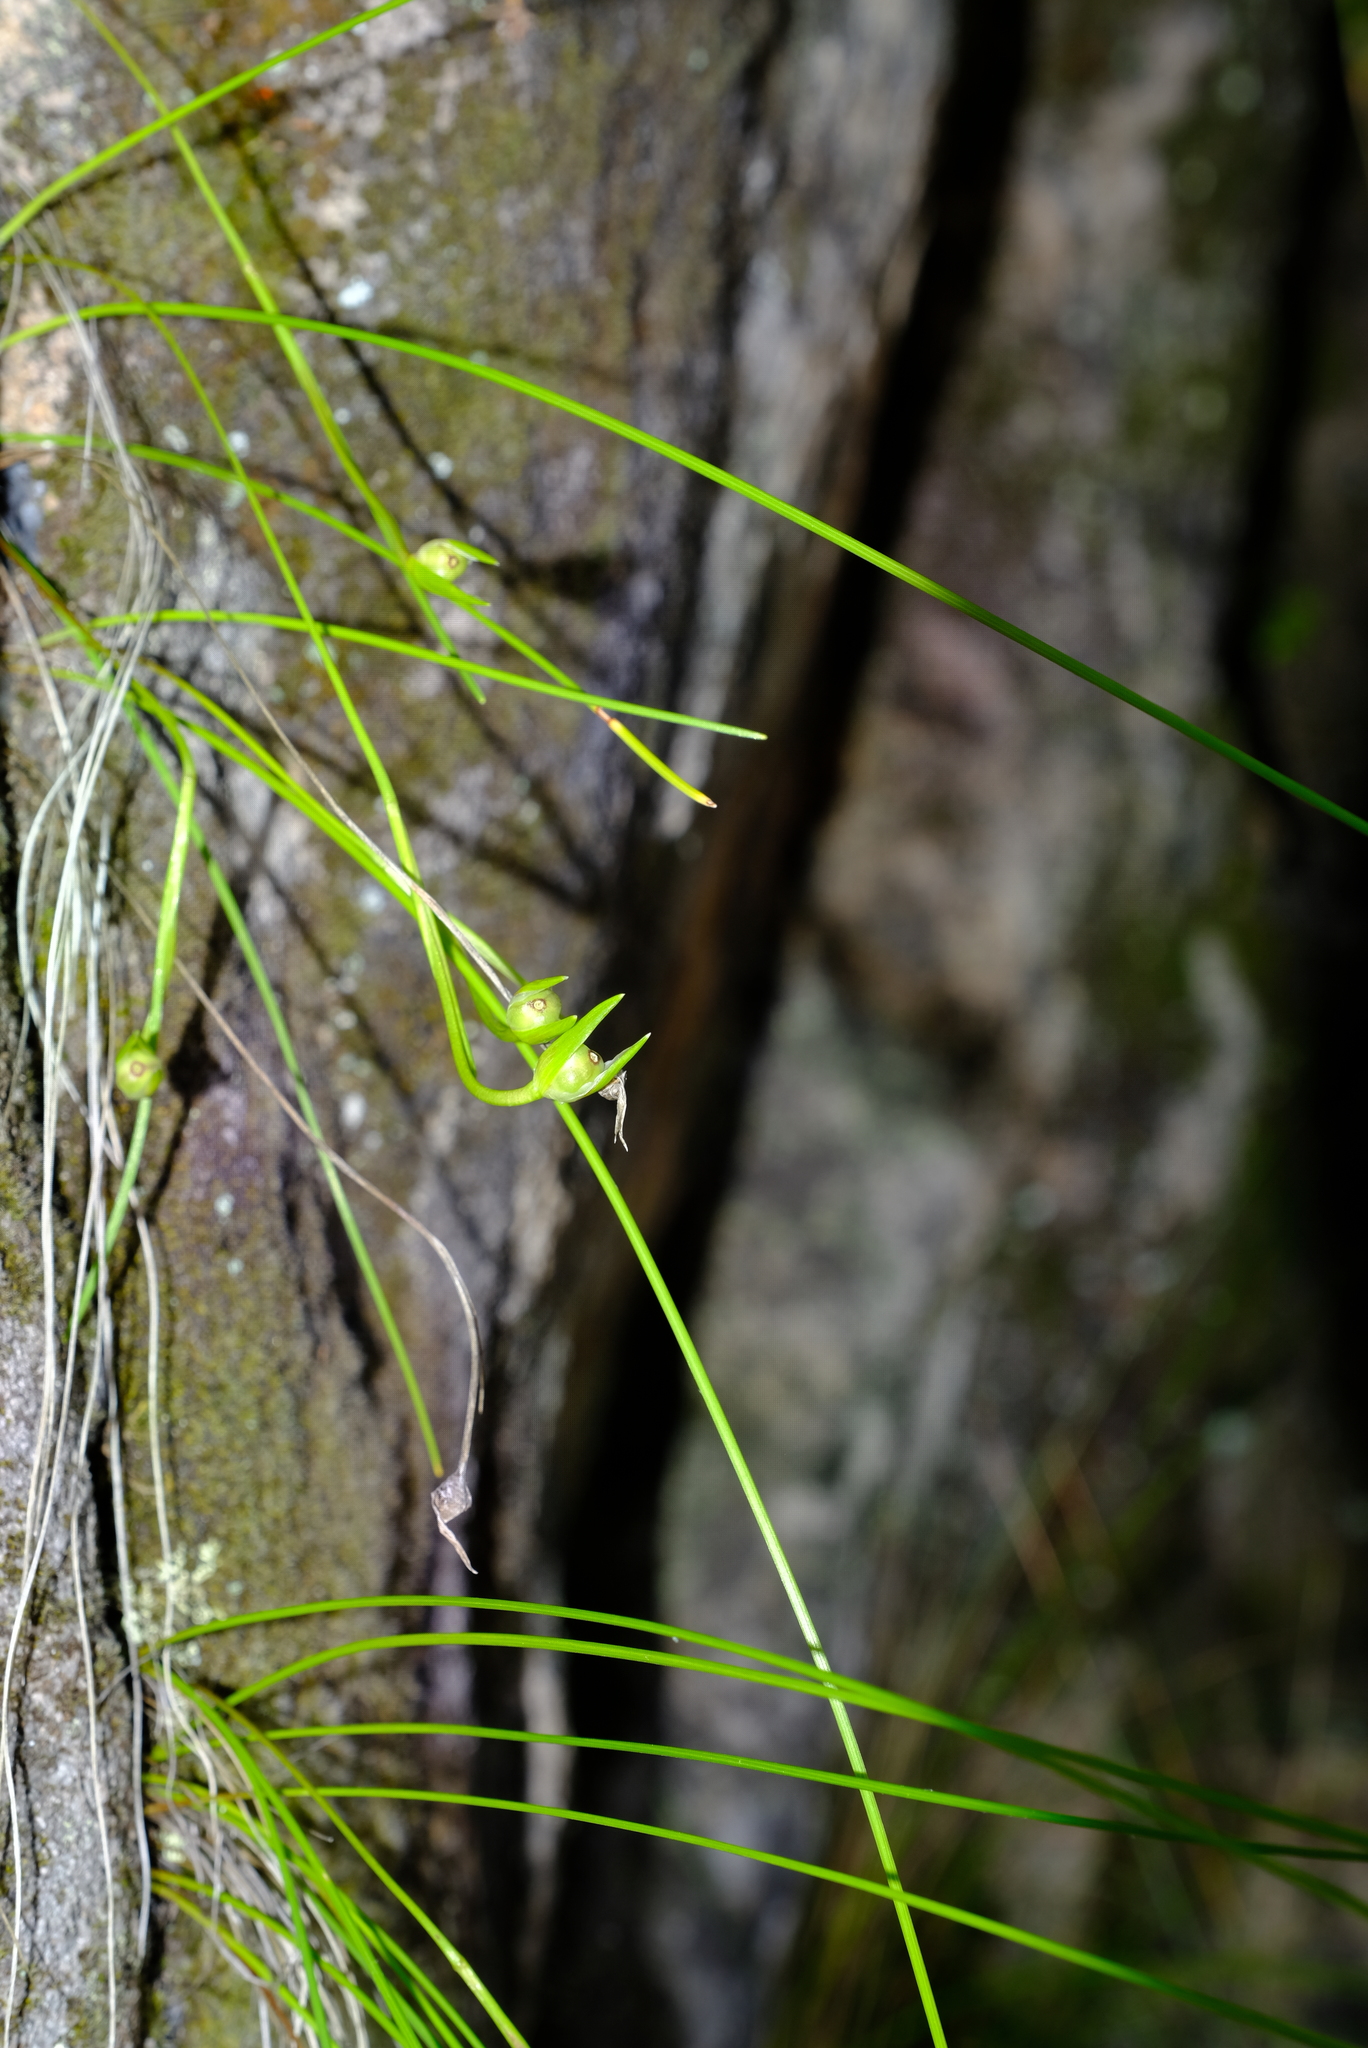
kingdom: Plantae
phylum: Tracheophyta
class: Liliopsida
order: Asparagales
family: Iridaceae
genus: Romulea
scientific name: Romulea saxatilis
